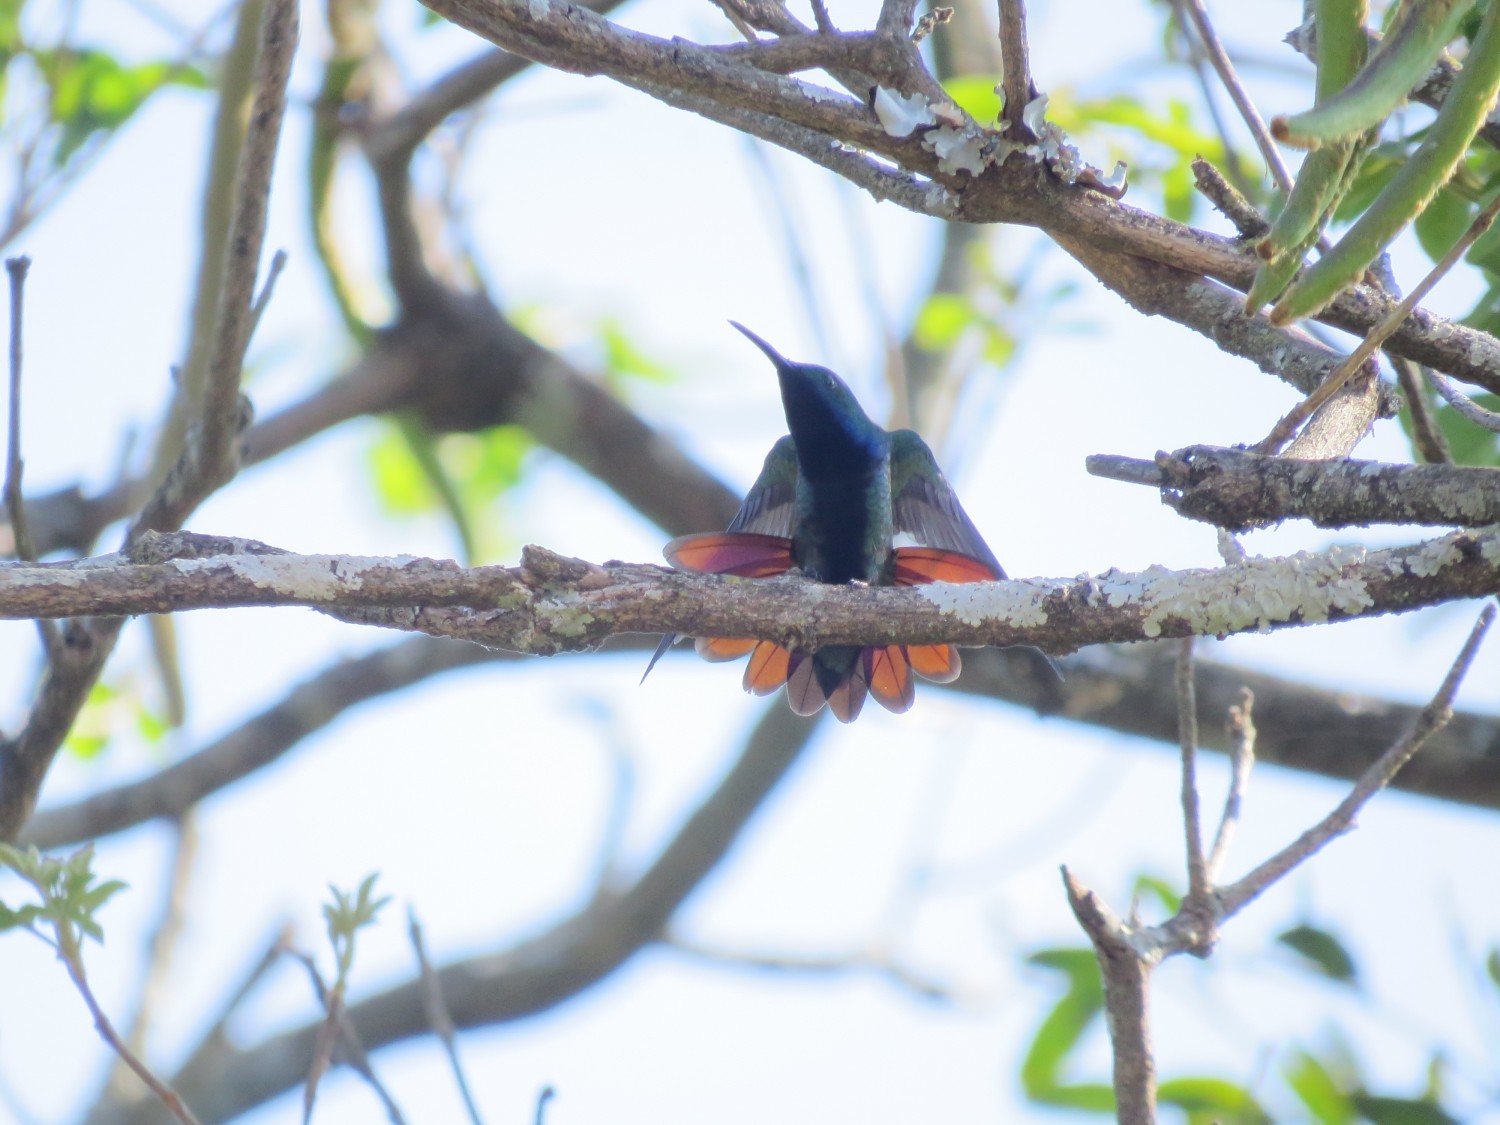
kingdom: Animalia
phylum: Chordata
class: Aves
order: Apodiformes
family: Trochilidae
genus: Anthracothorax
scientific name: Anthracothorax nigricollis
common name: Black-throated mango
